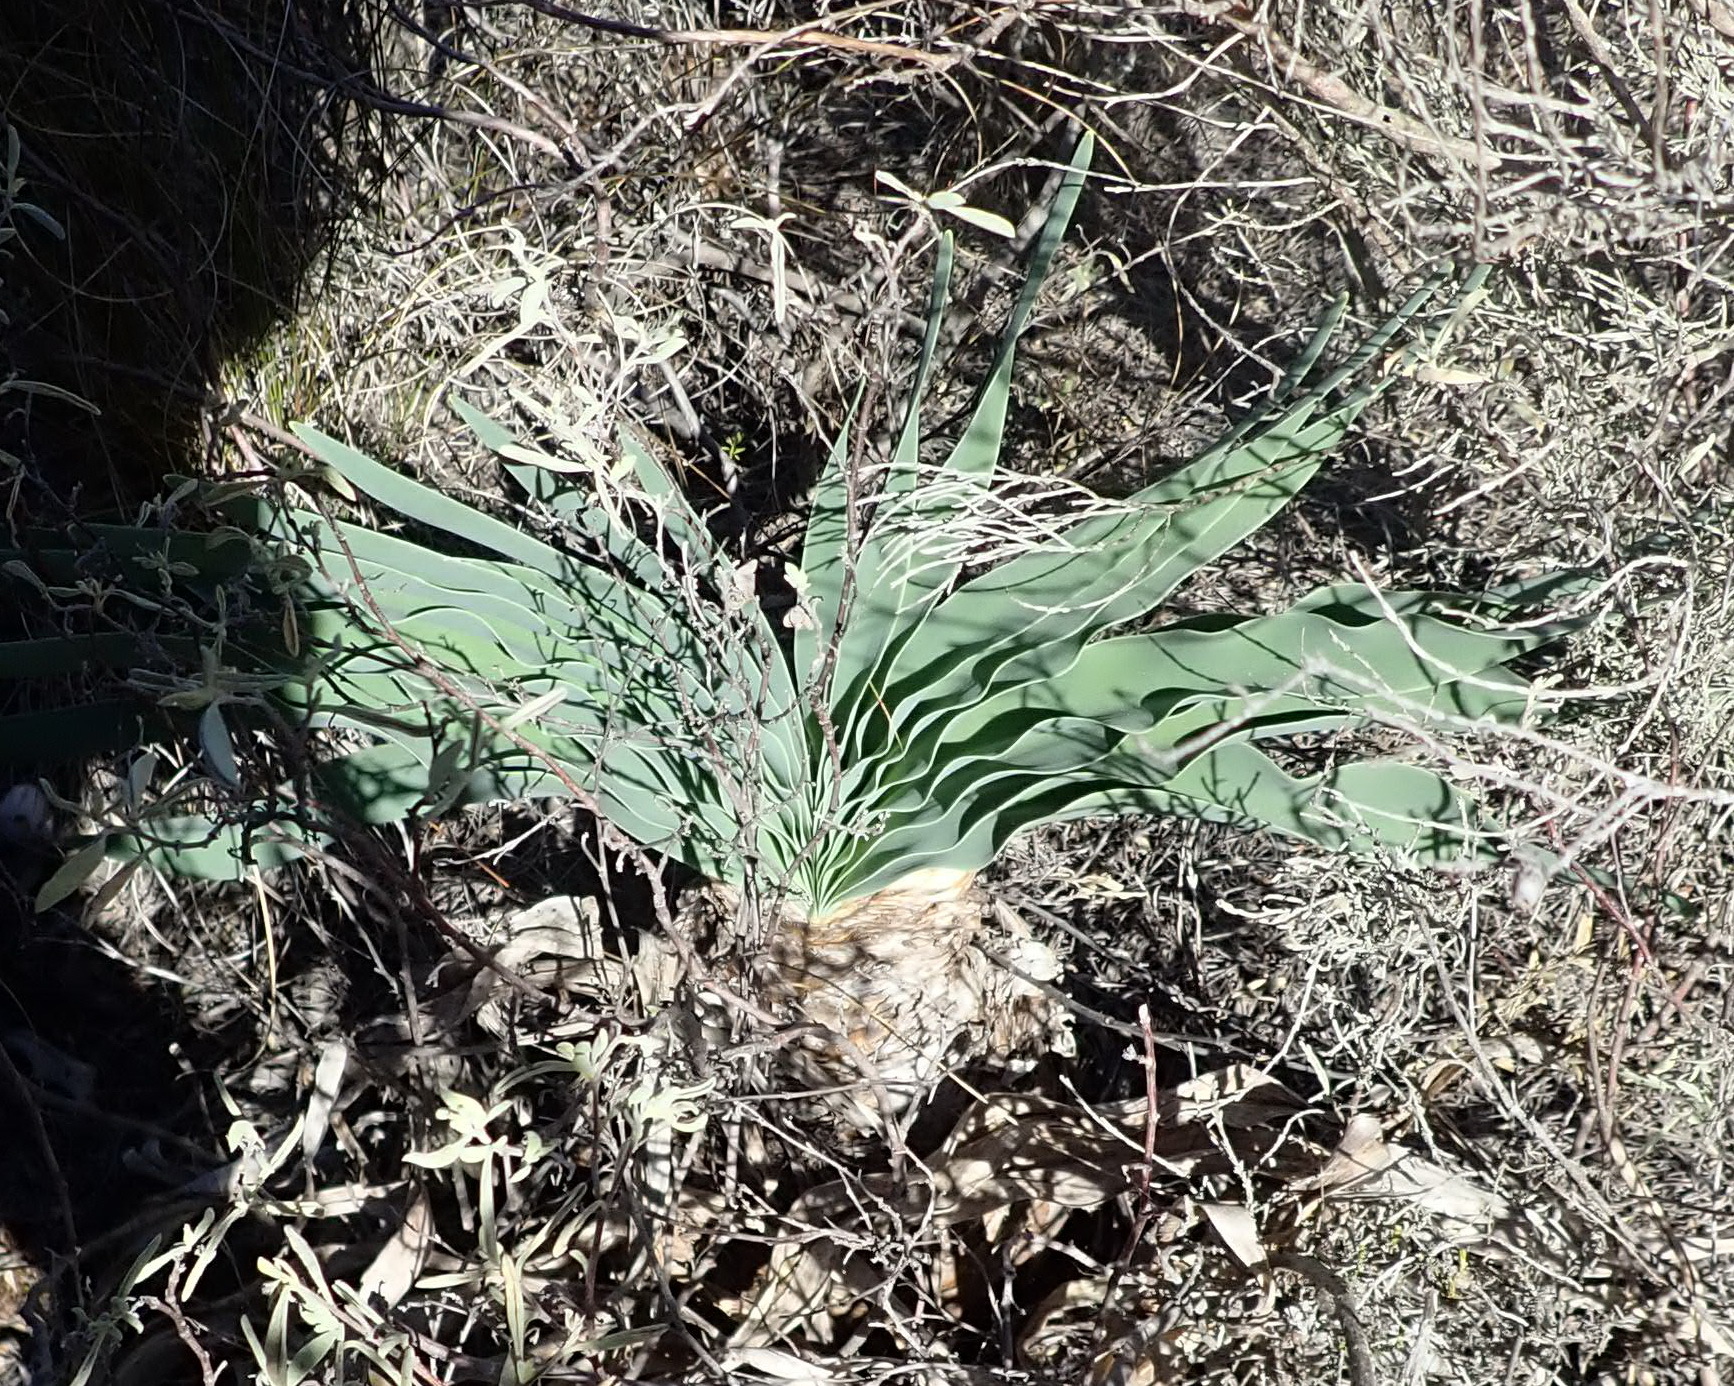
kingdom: Plantae
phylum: Tracheophyta
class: Liliopsida
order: Asparagales
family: Amaryllidaceae
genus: Boophone
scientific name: Boophone disticha
